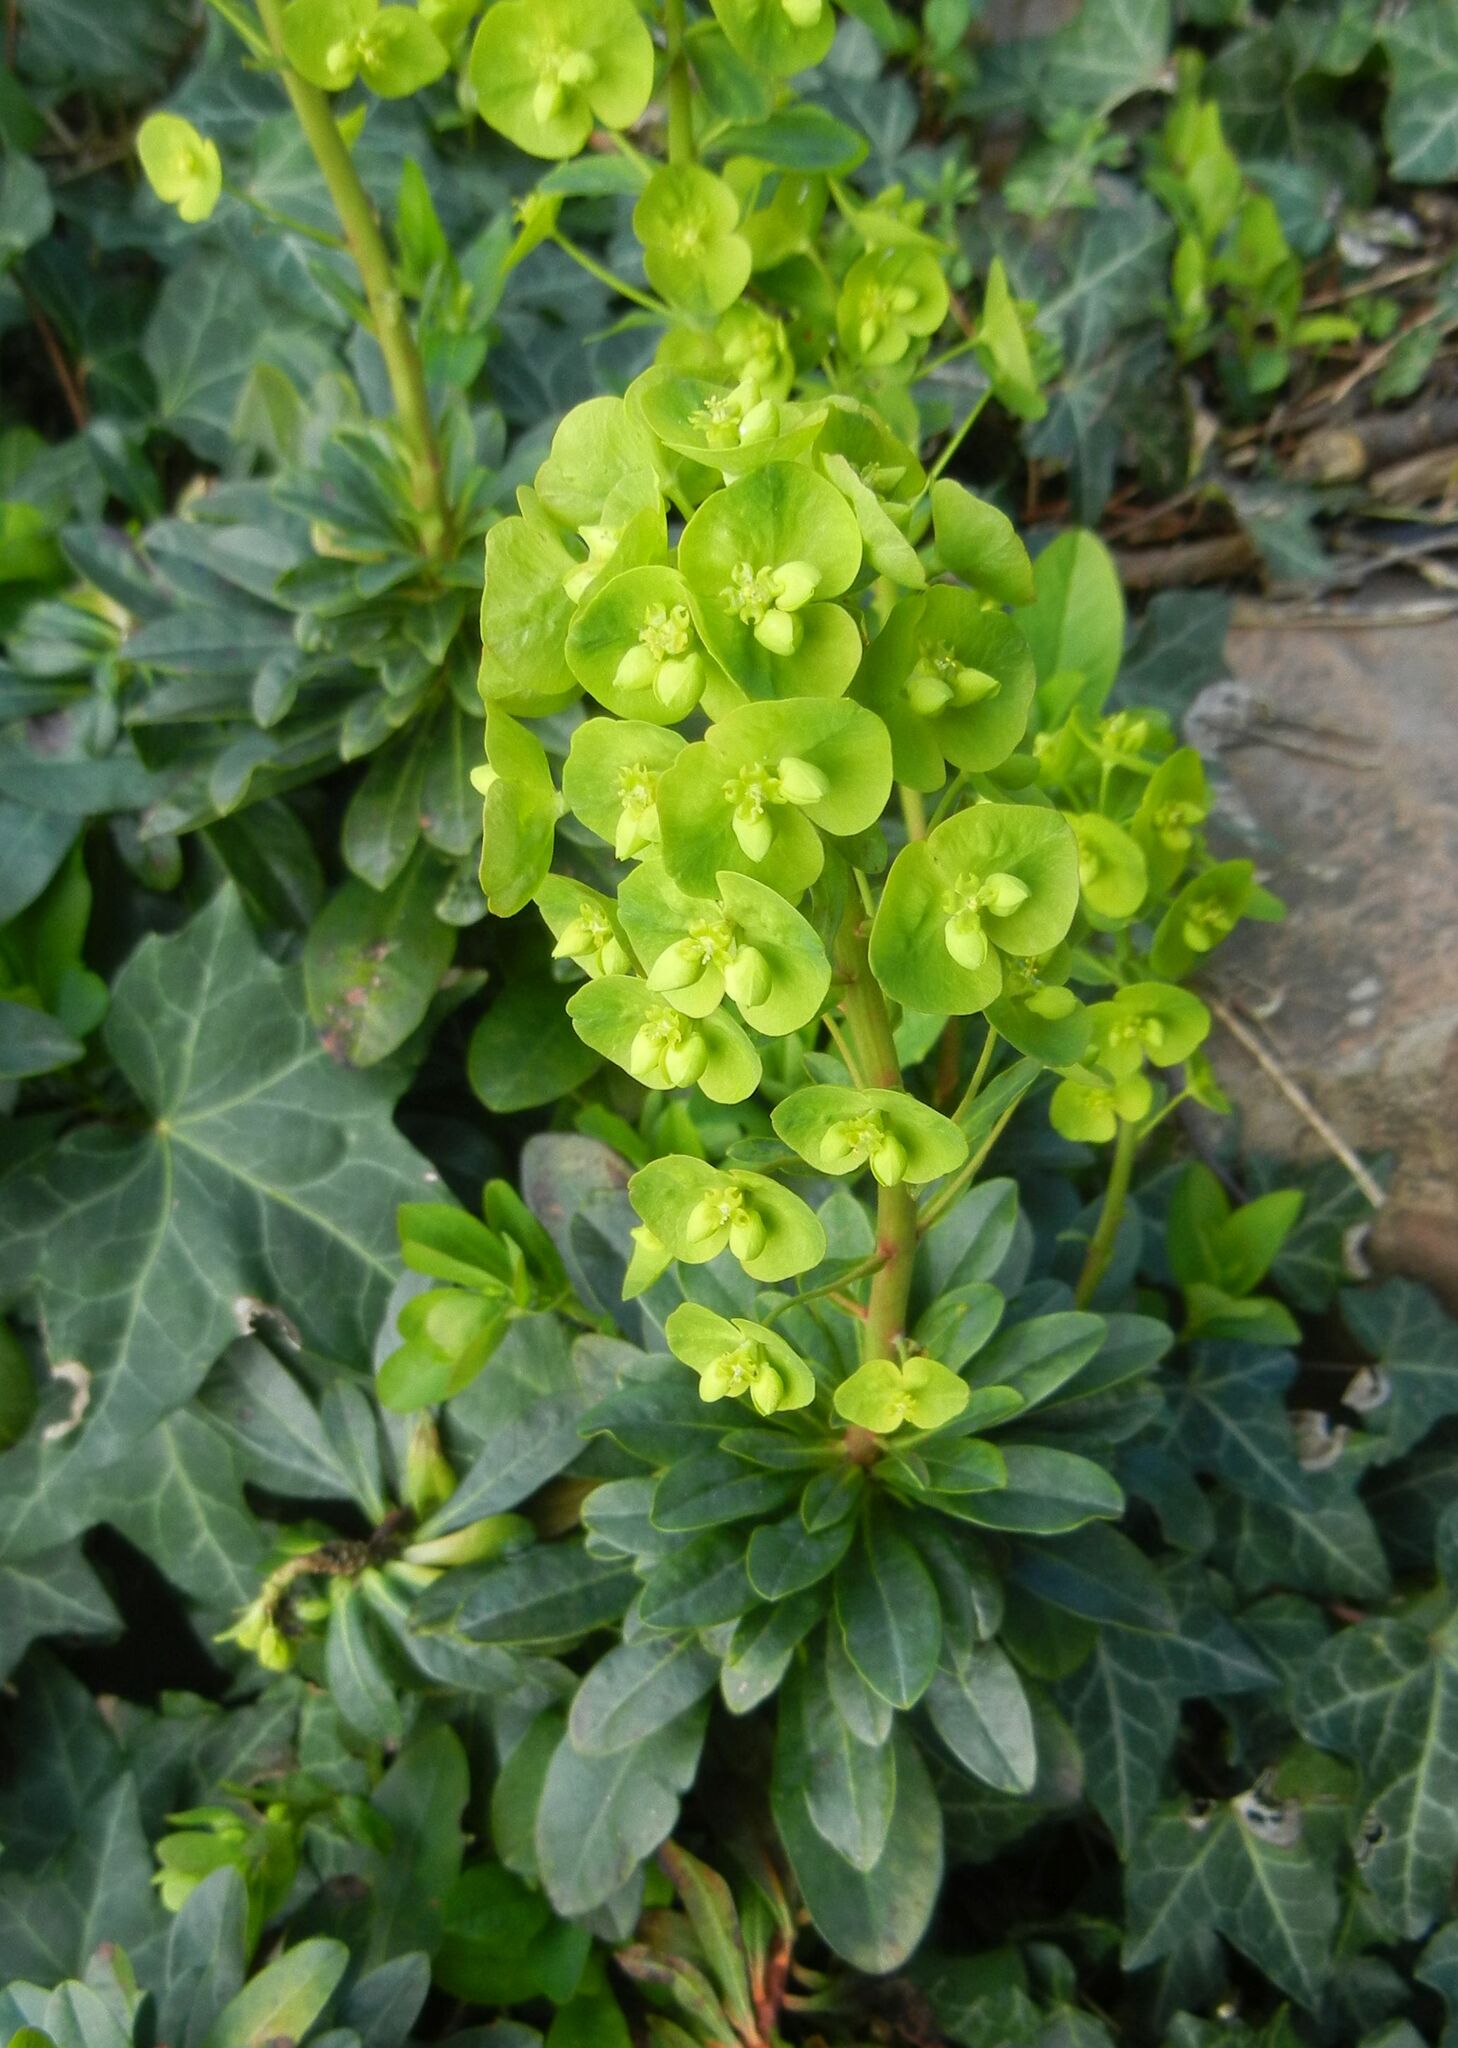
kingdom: Plantae
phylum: Tracheophyta
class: Magnoliopsida
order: Malpighiales
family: Euphorbiaceae
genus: Euphorbia
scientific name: Euphorbia amygdaloides
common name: Wood spurge
